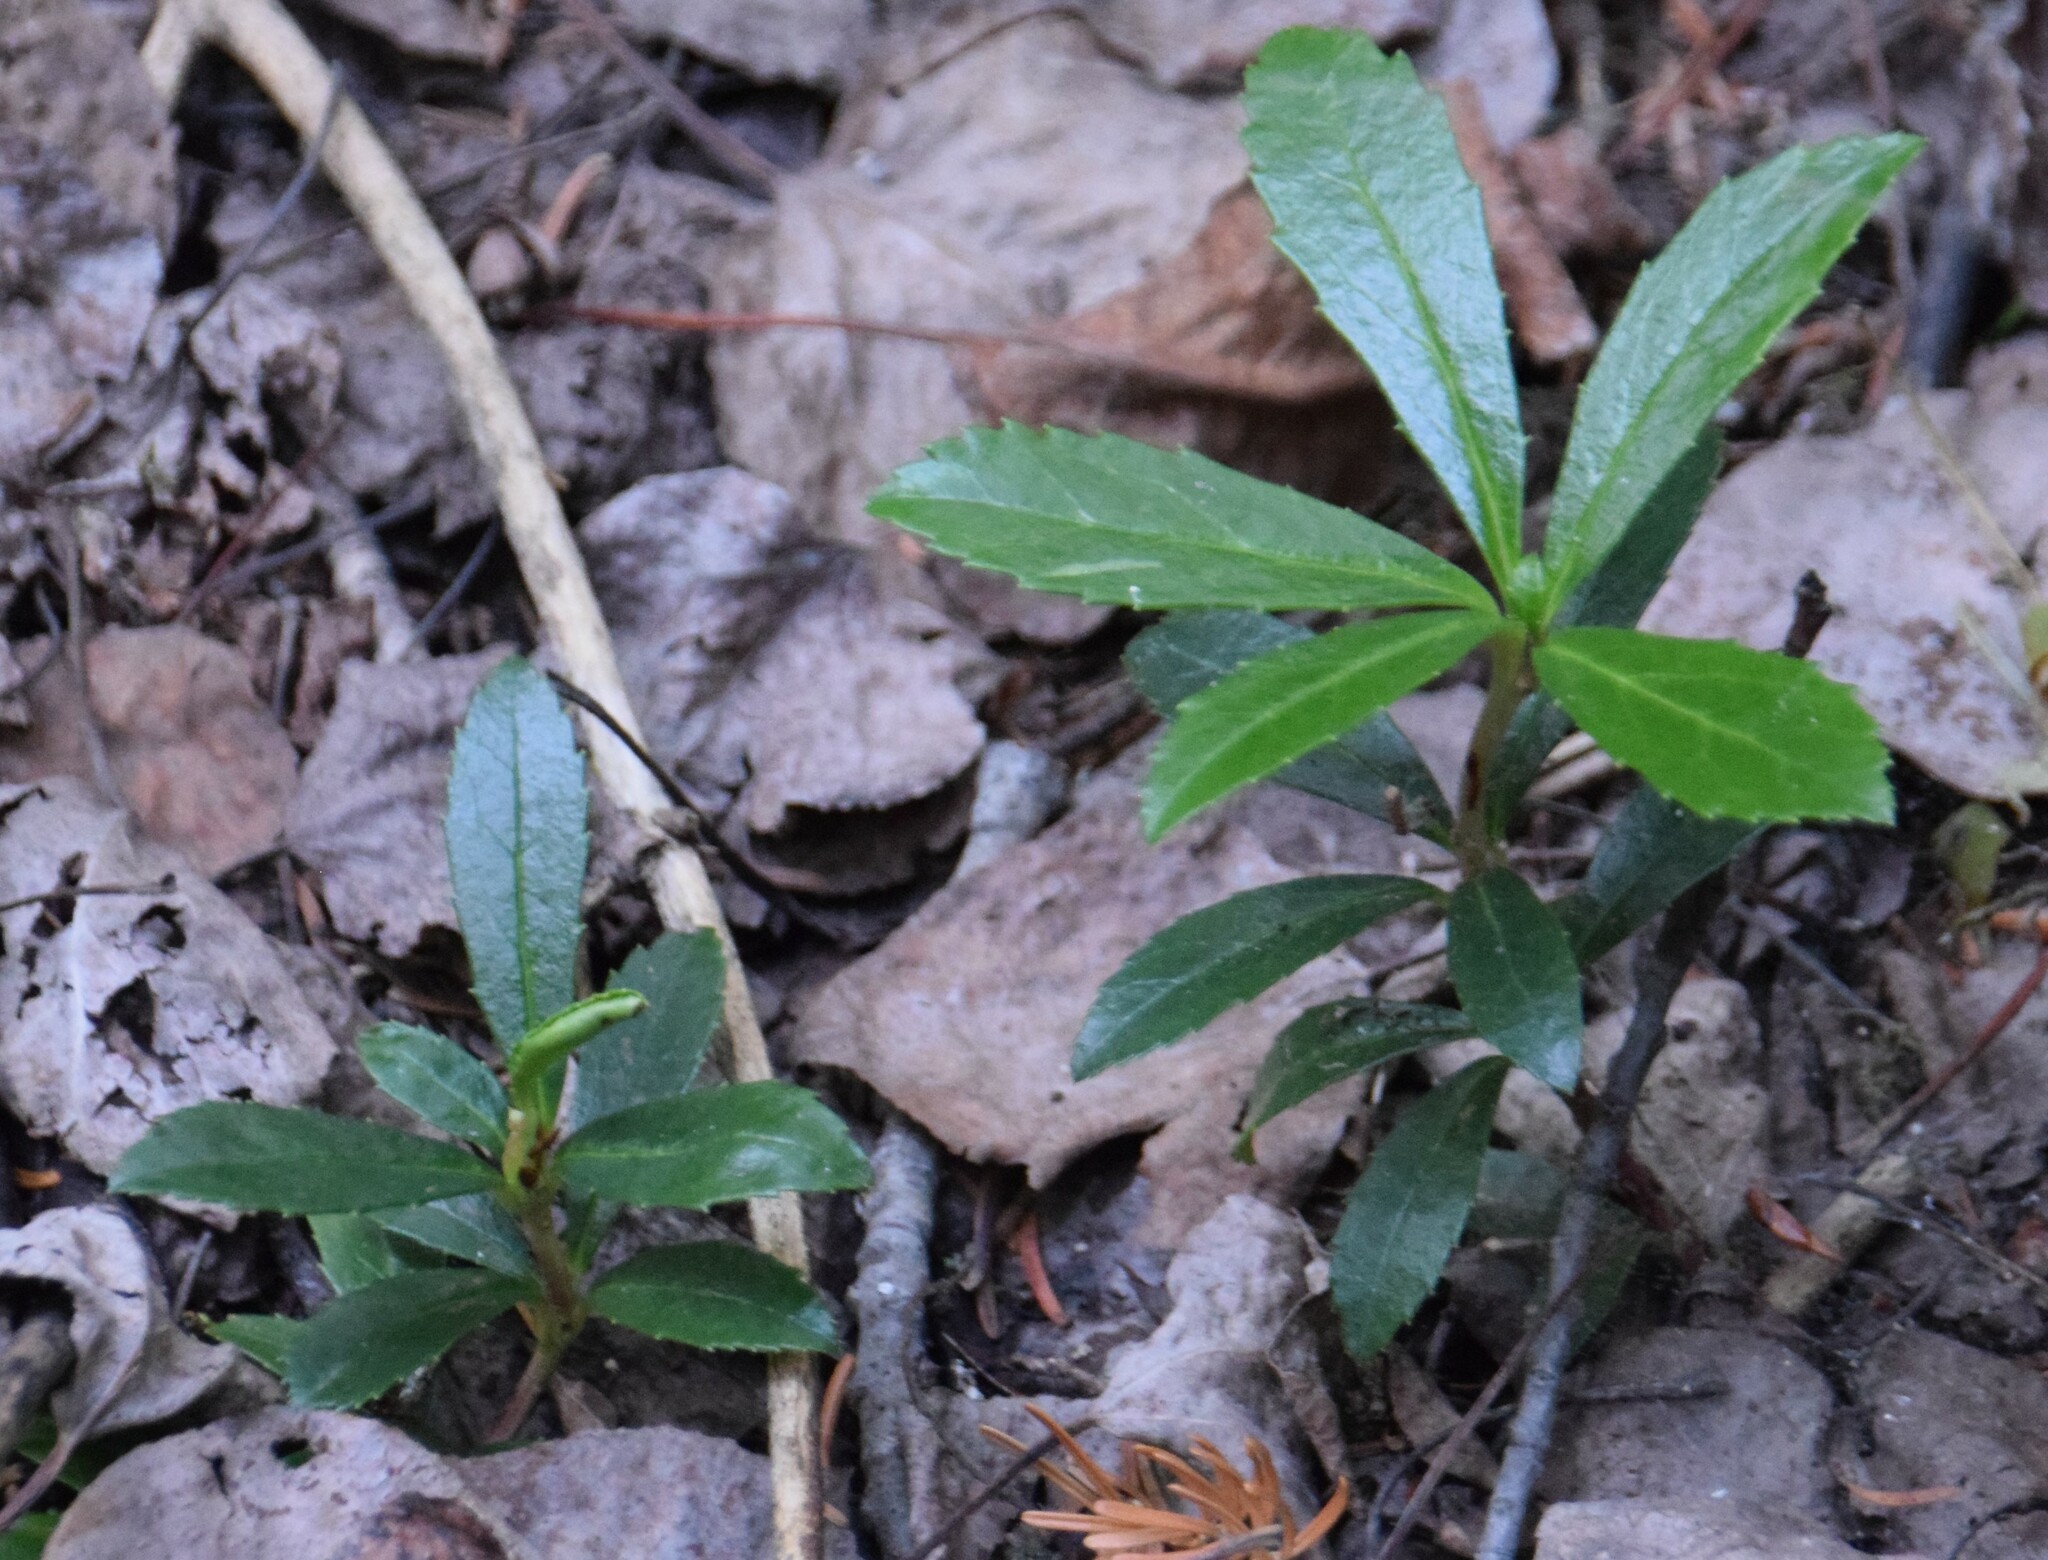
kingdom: Plantae
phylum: Tracheophyta
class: Magnoliopsida
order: Ericales
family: Ericaceae
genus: Chimaphila
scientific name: Chimaphila umbellata
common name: Pipsissewa
